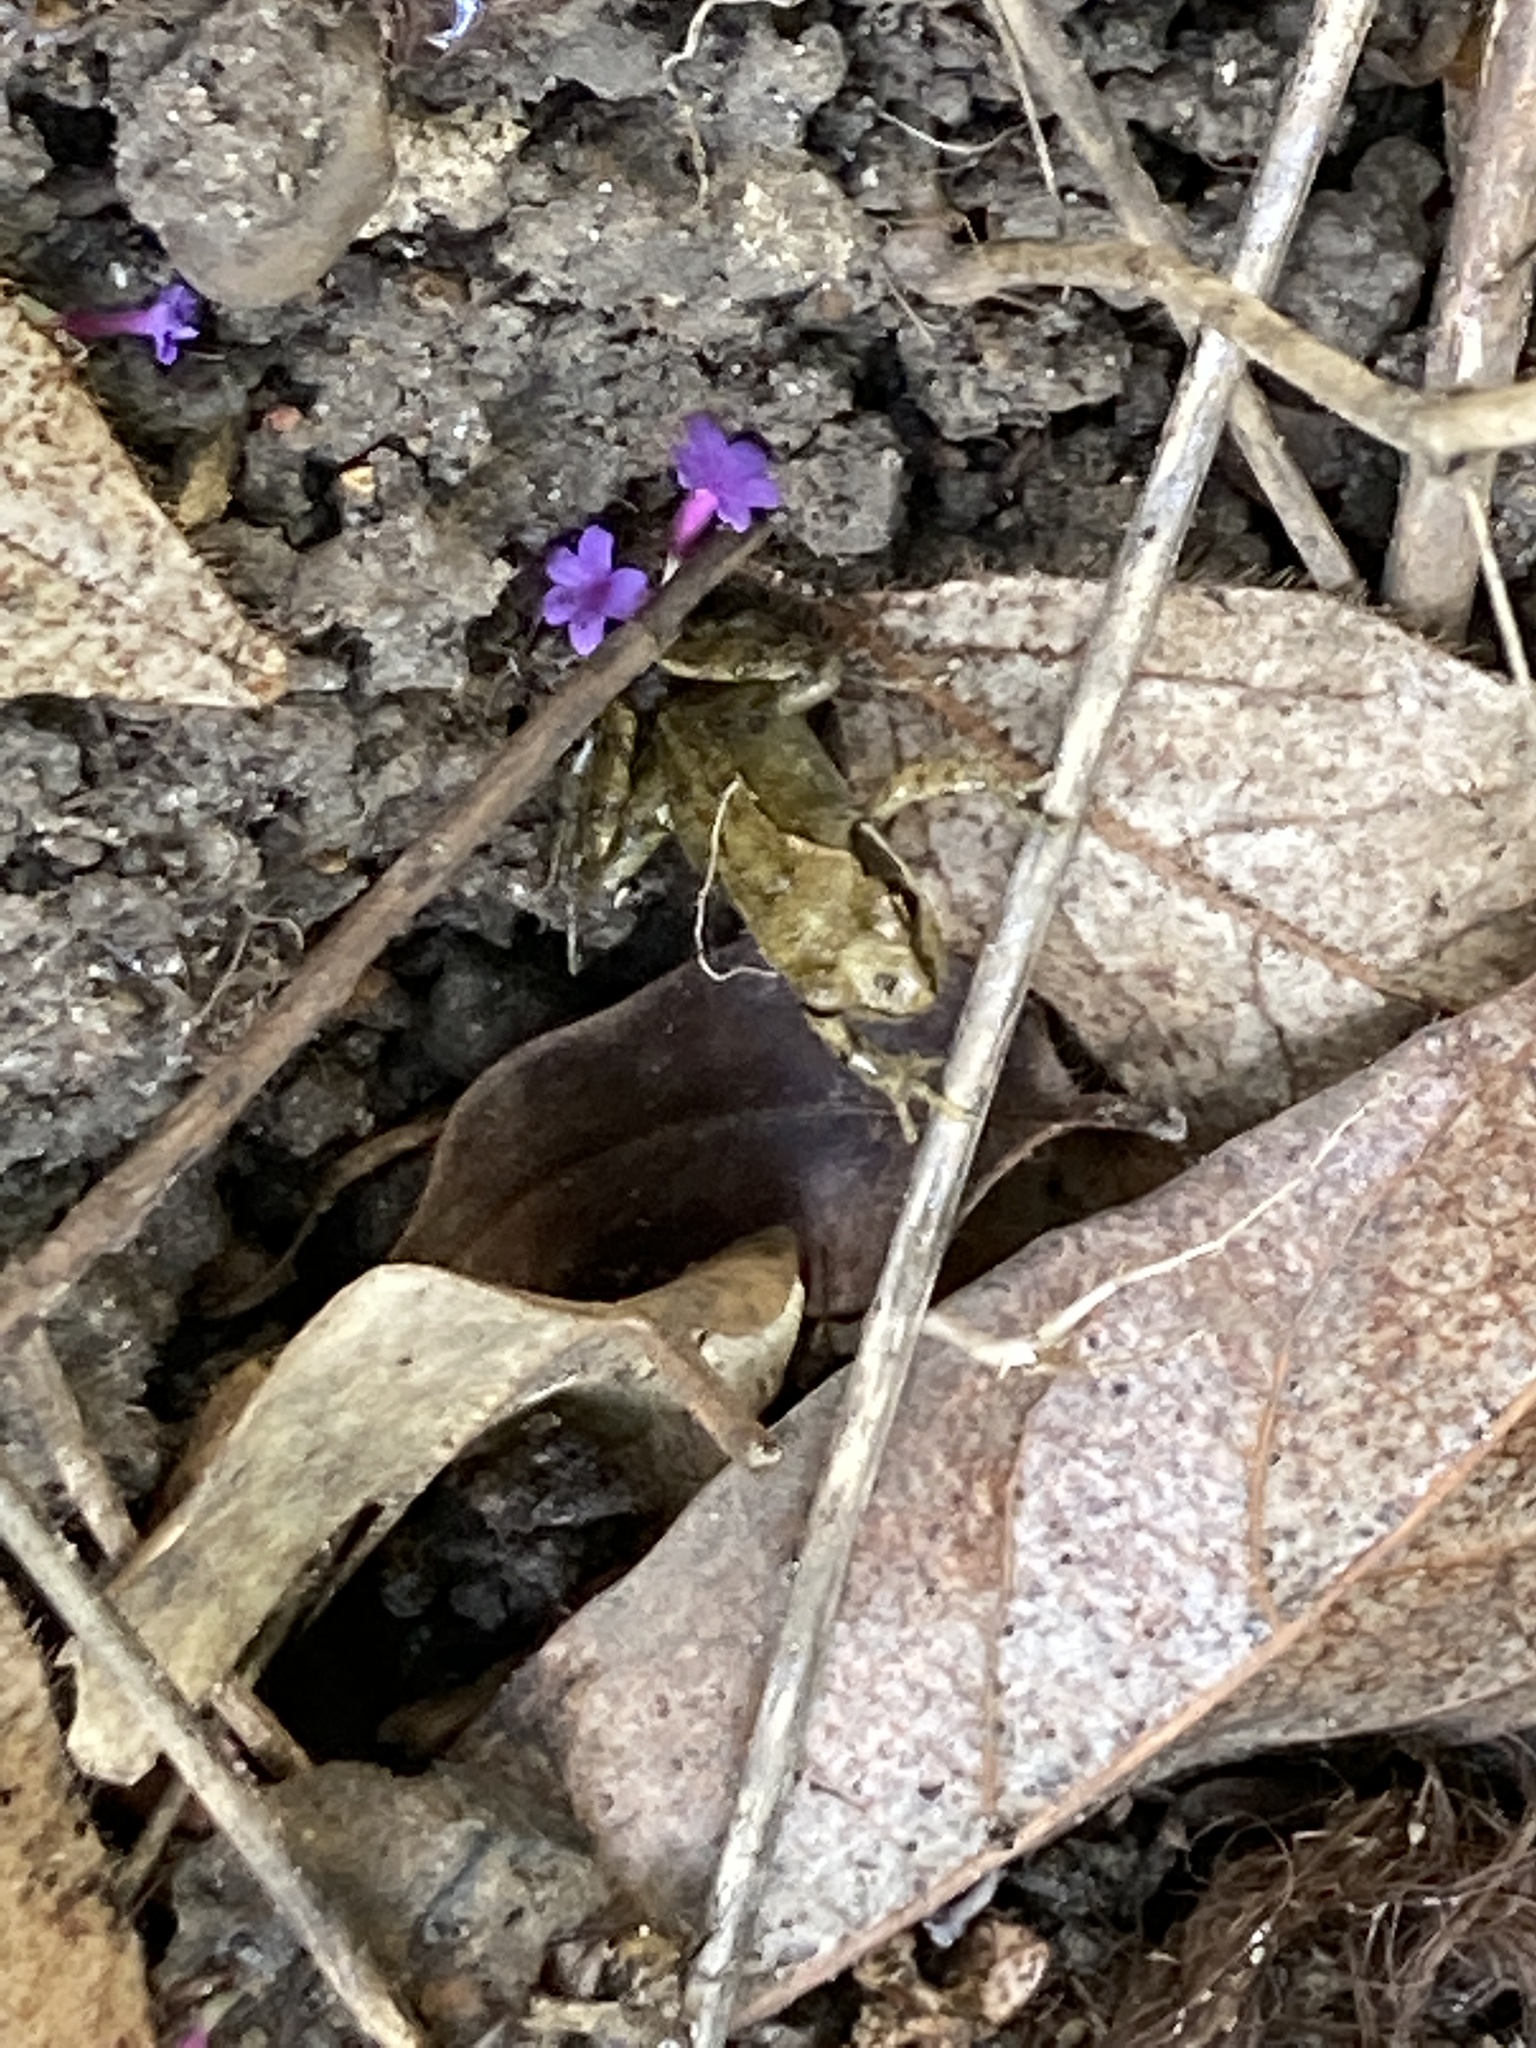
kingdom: Animalia
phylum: Chordata
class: Amphibia
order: Anura
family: Ranidae
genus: Rana
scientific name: Rana temporaria
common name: Common frog
